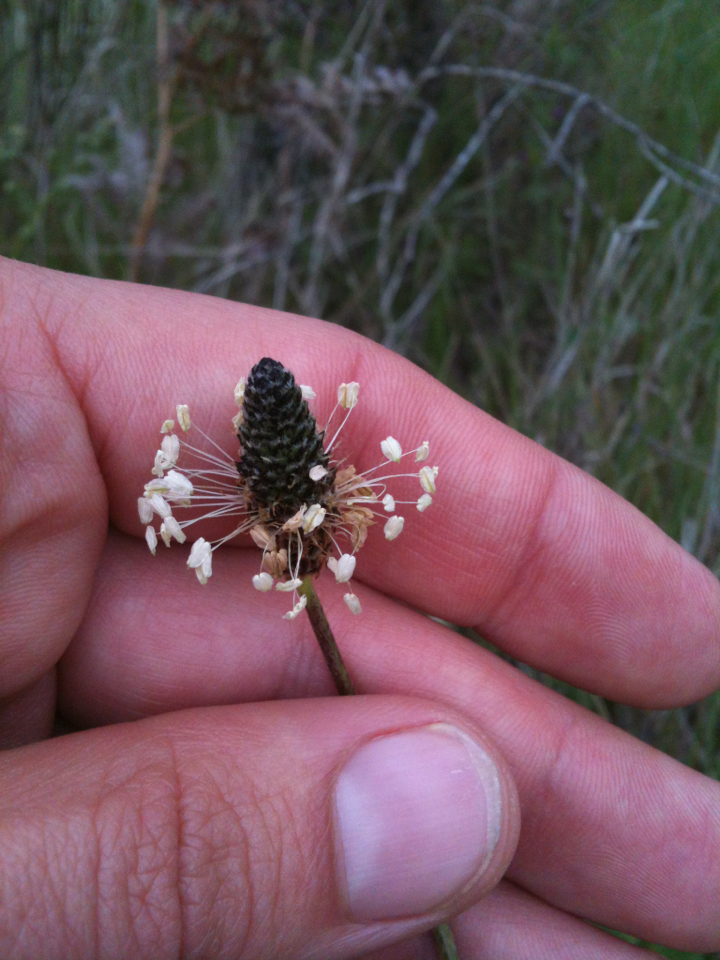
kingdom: Plantae
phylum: Tracheophyta
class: Magnoliopsida
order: Lamiales
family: Plantaginaceae
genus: Plantago
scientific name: Plantago lanceolata
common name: Ribwort plantain
